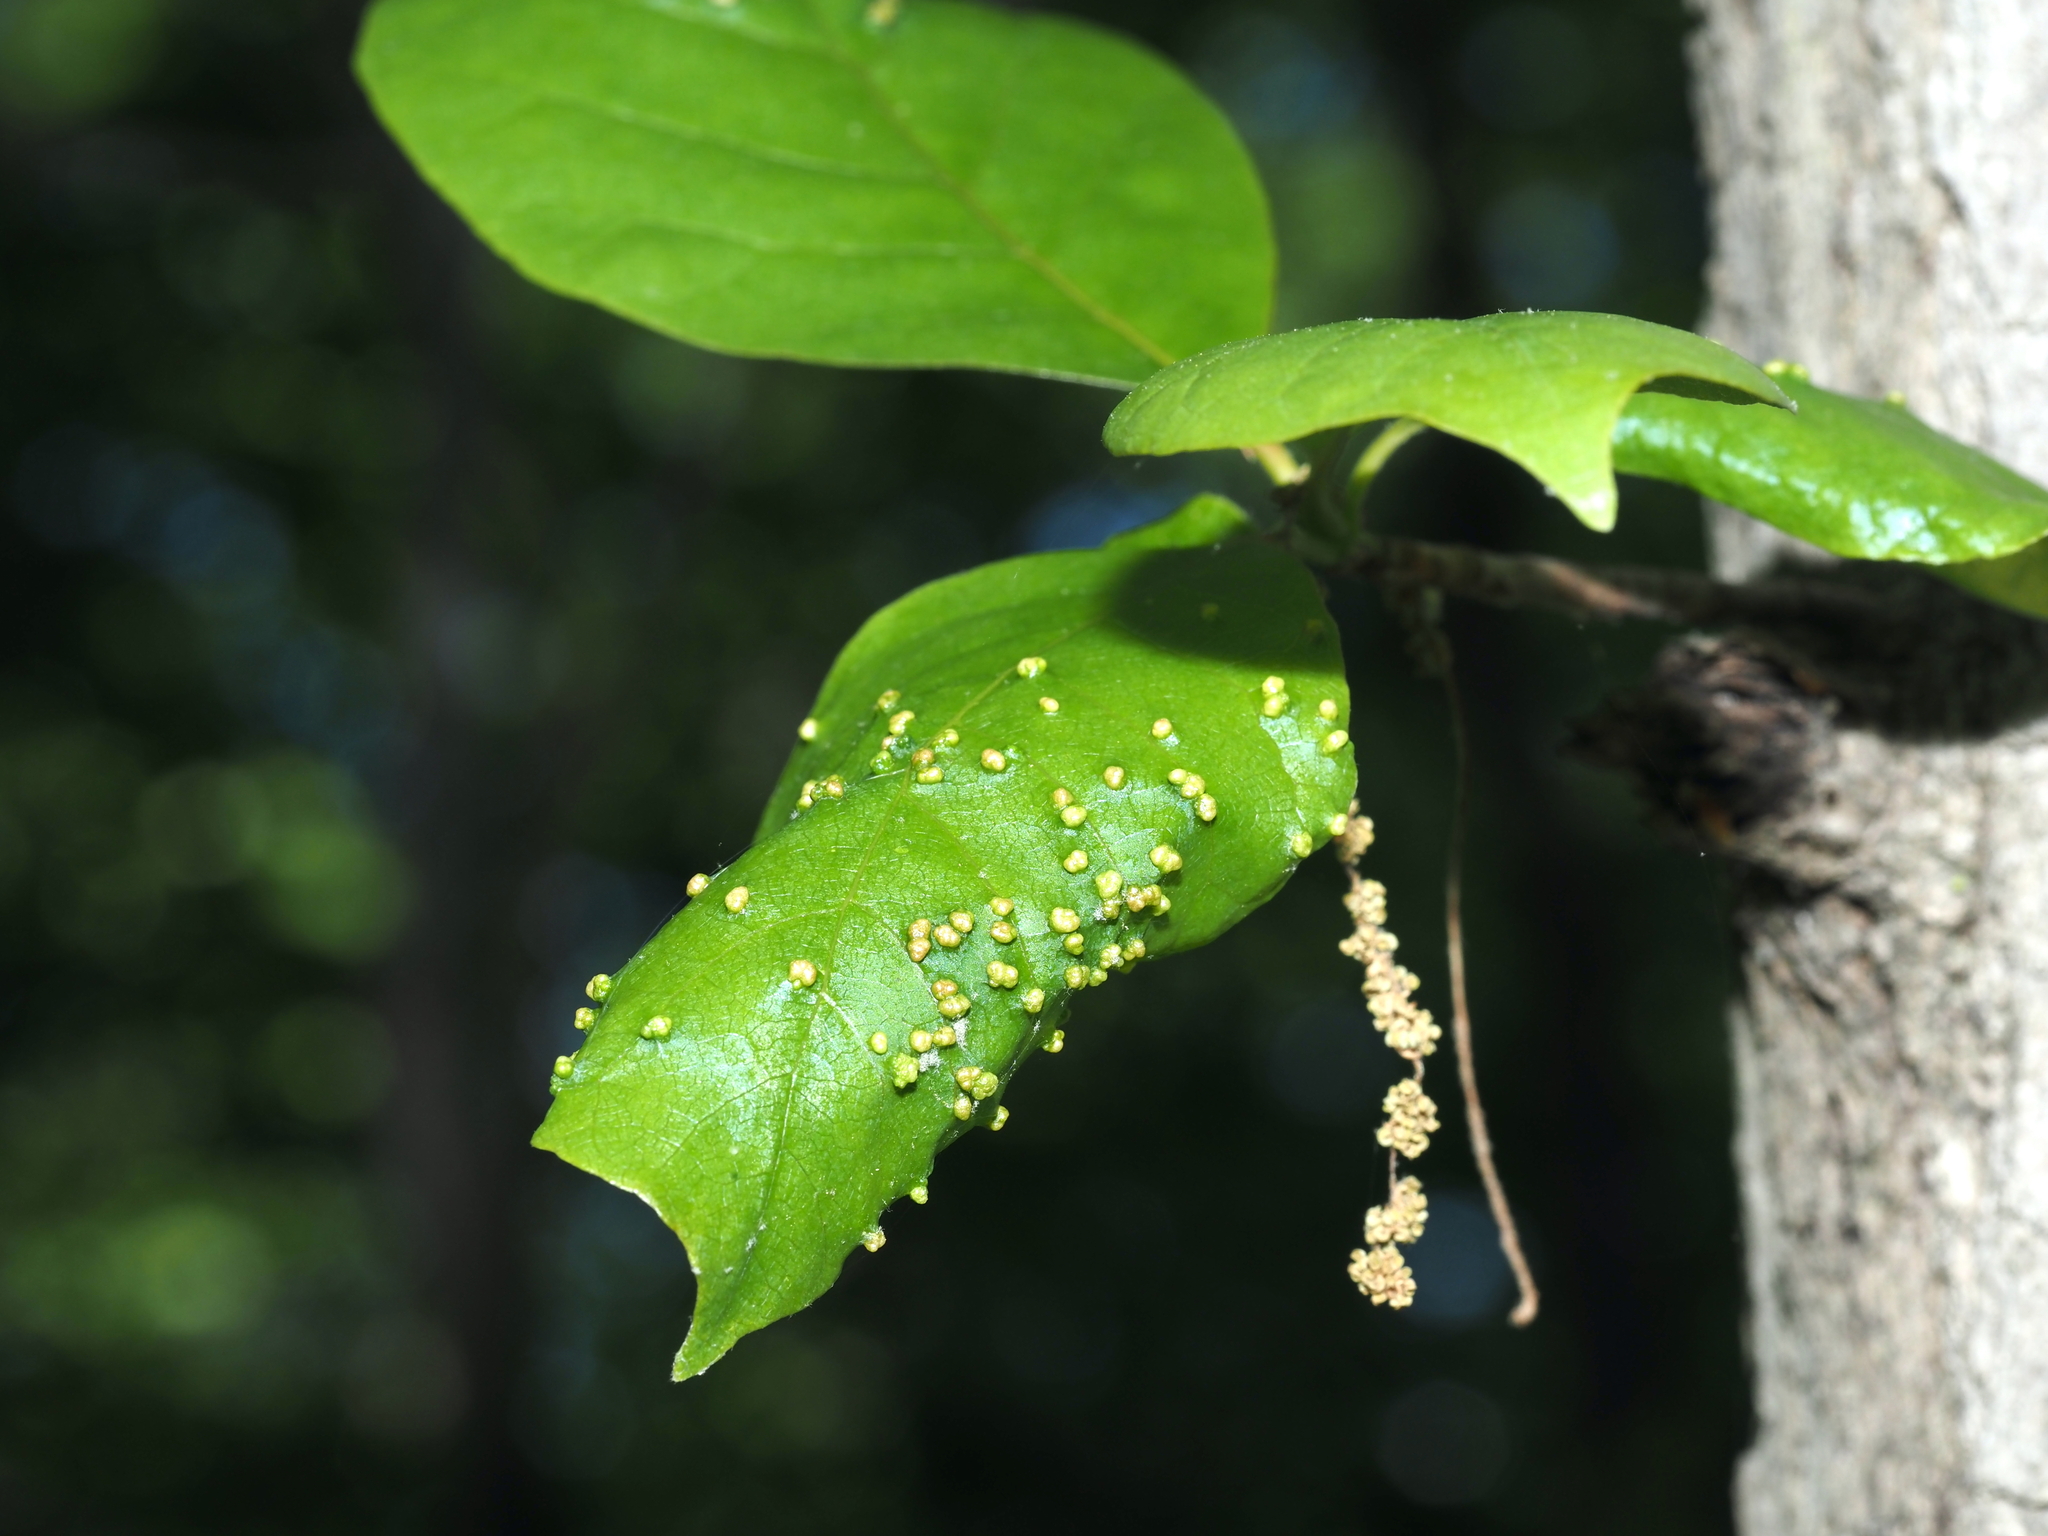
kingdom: Animalia
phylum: Arthropoda
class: Arachnida
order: Trombidiformes
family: Eriophyidae
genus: Aceria
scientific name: Aceria
